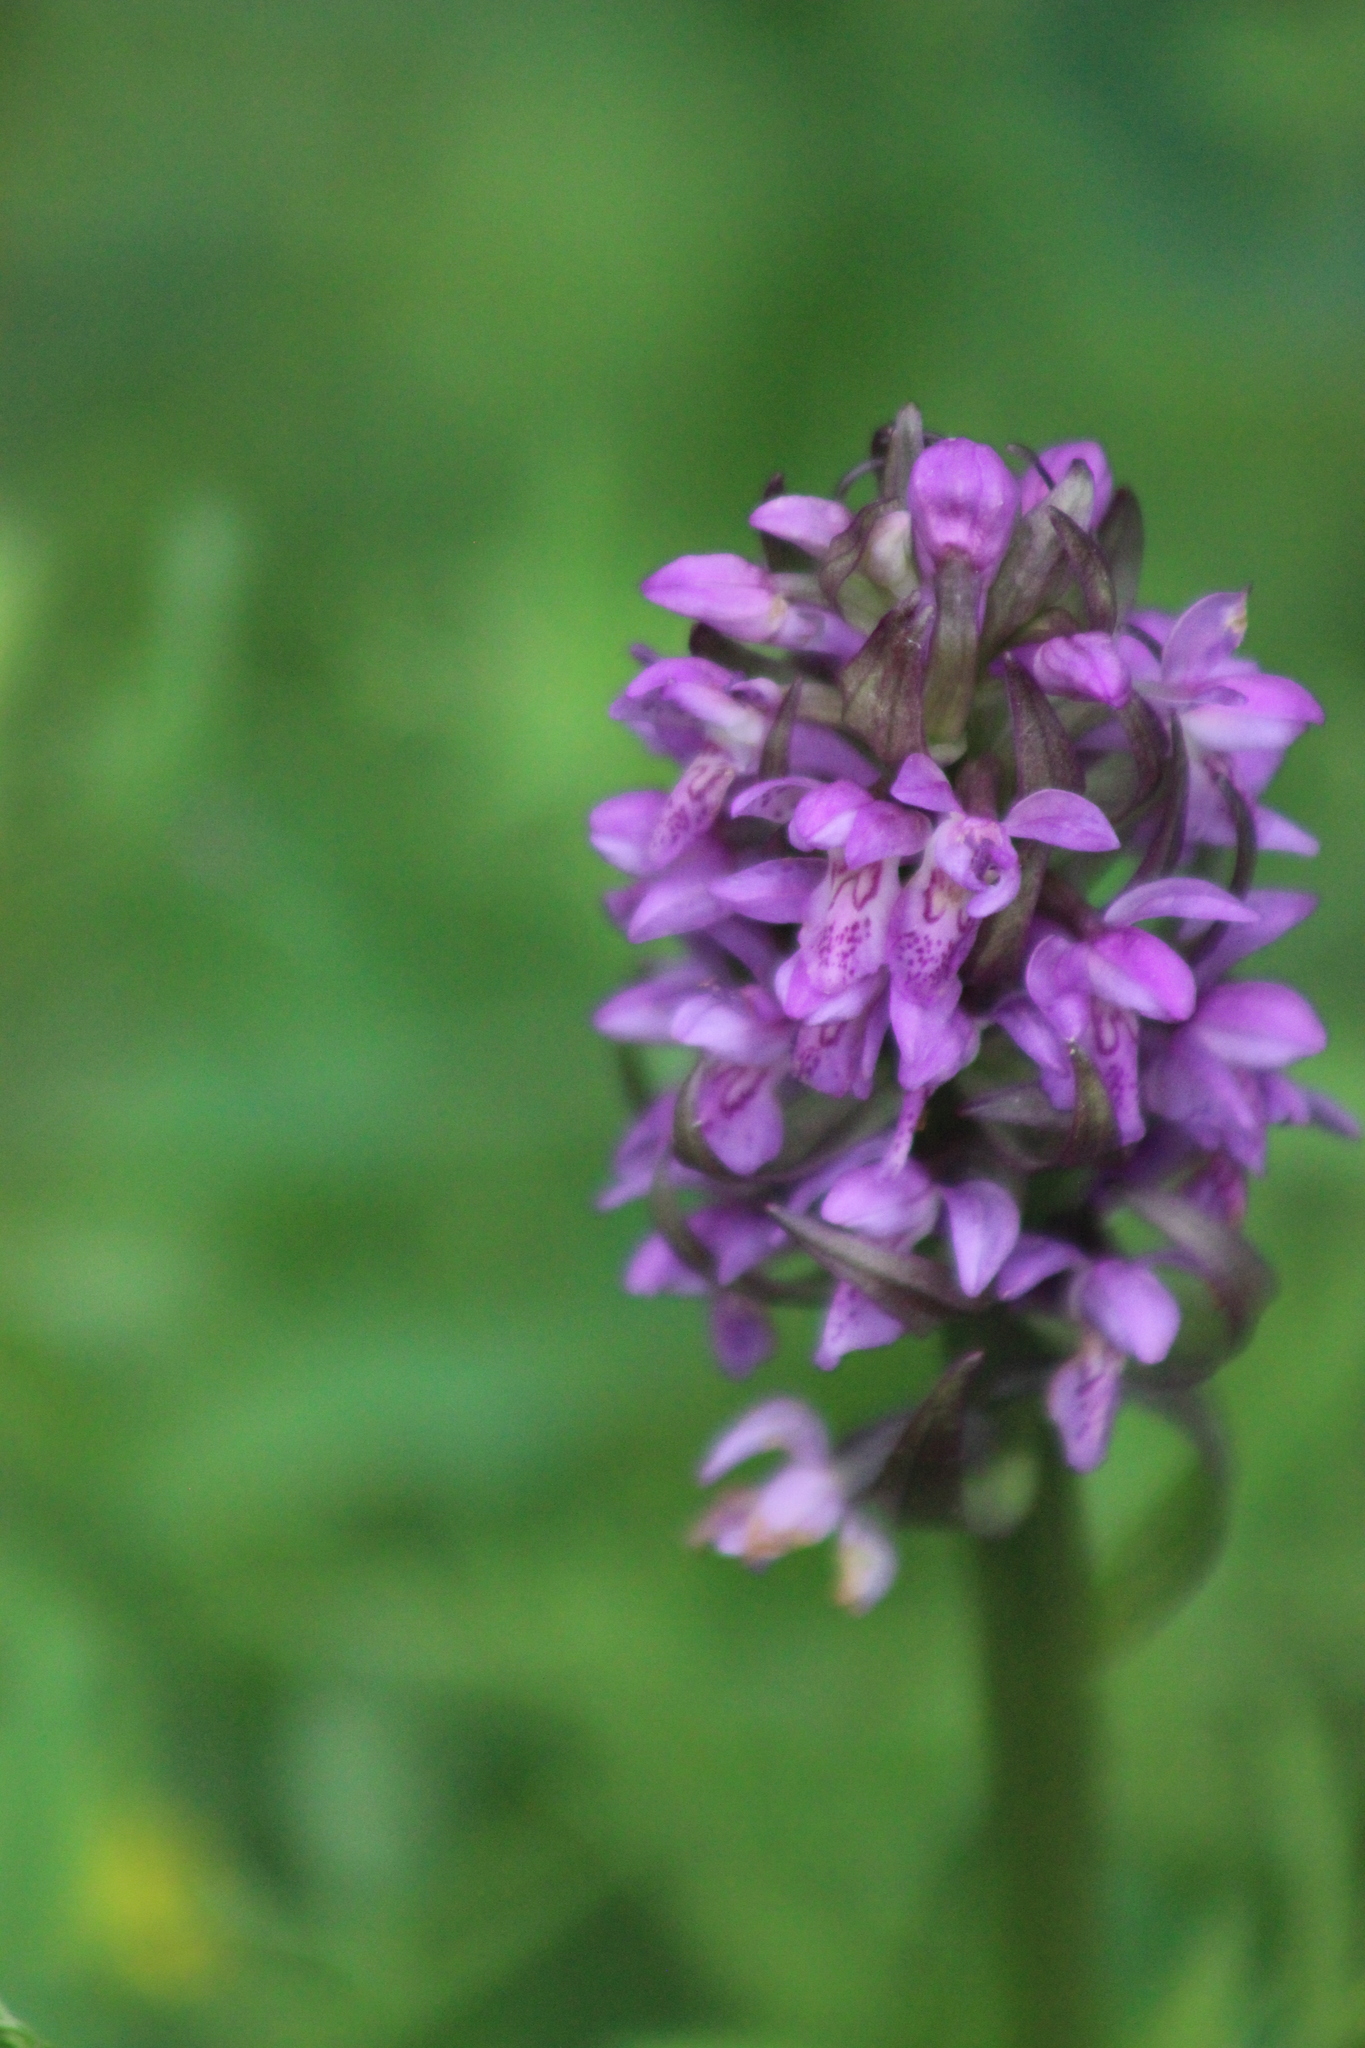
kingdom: Plantae
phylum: Tracheophyta
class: Liliopsida
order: Asparagales
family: Orchidaceae
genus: Dactylorhiza
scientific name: Dactylorhiza incarnata
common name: Early marsh-orchid
